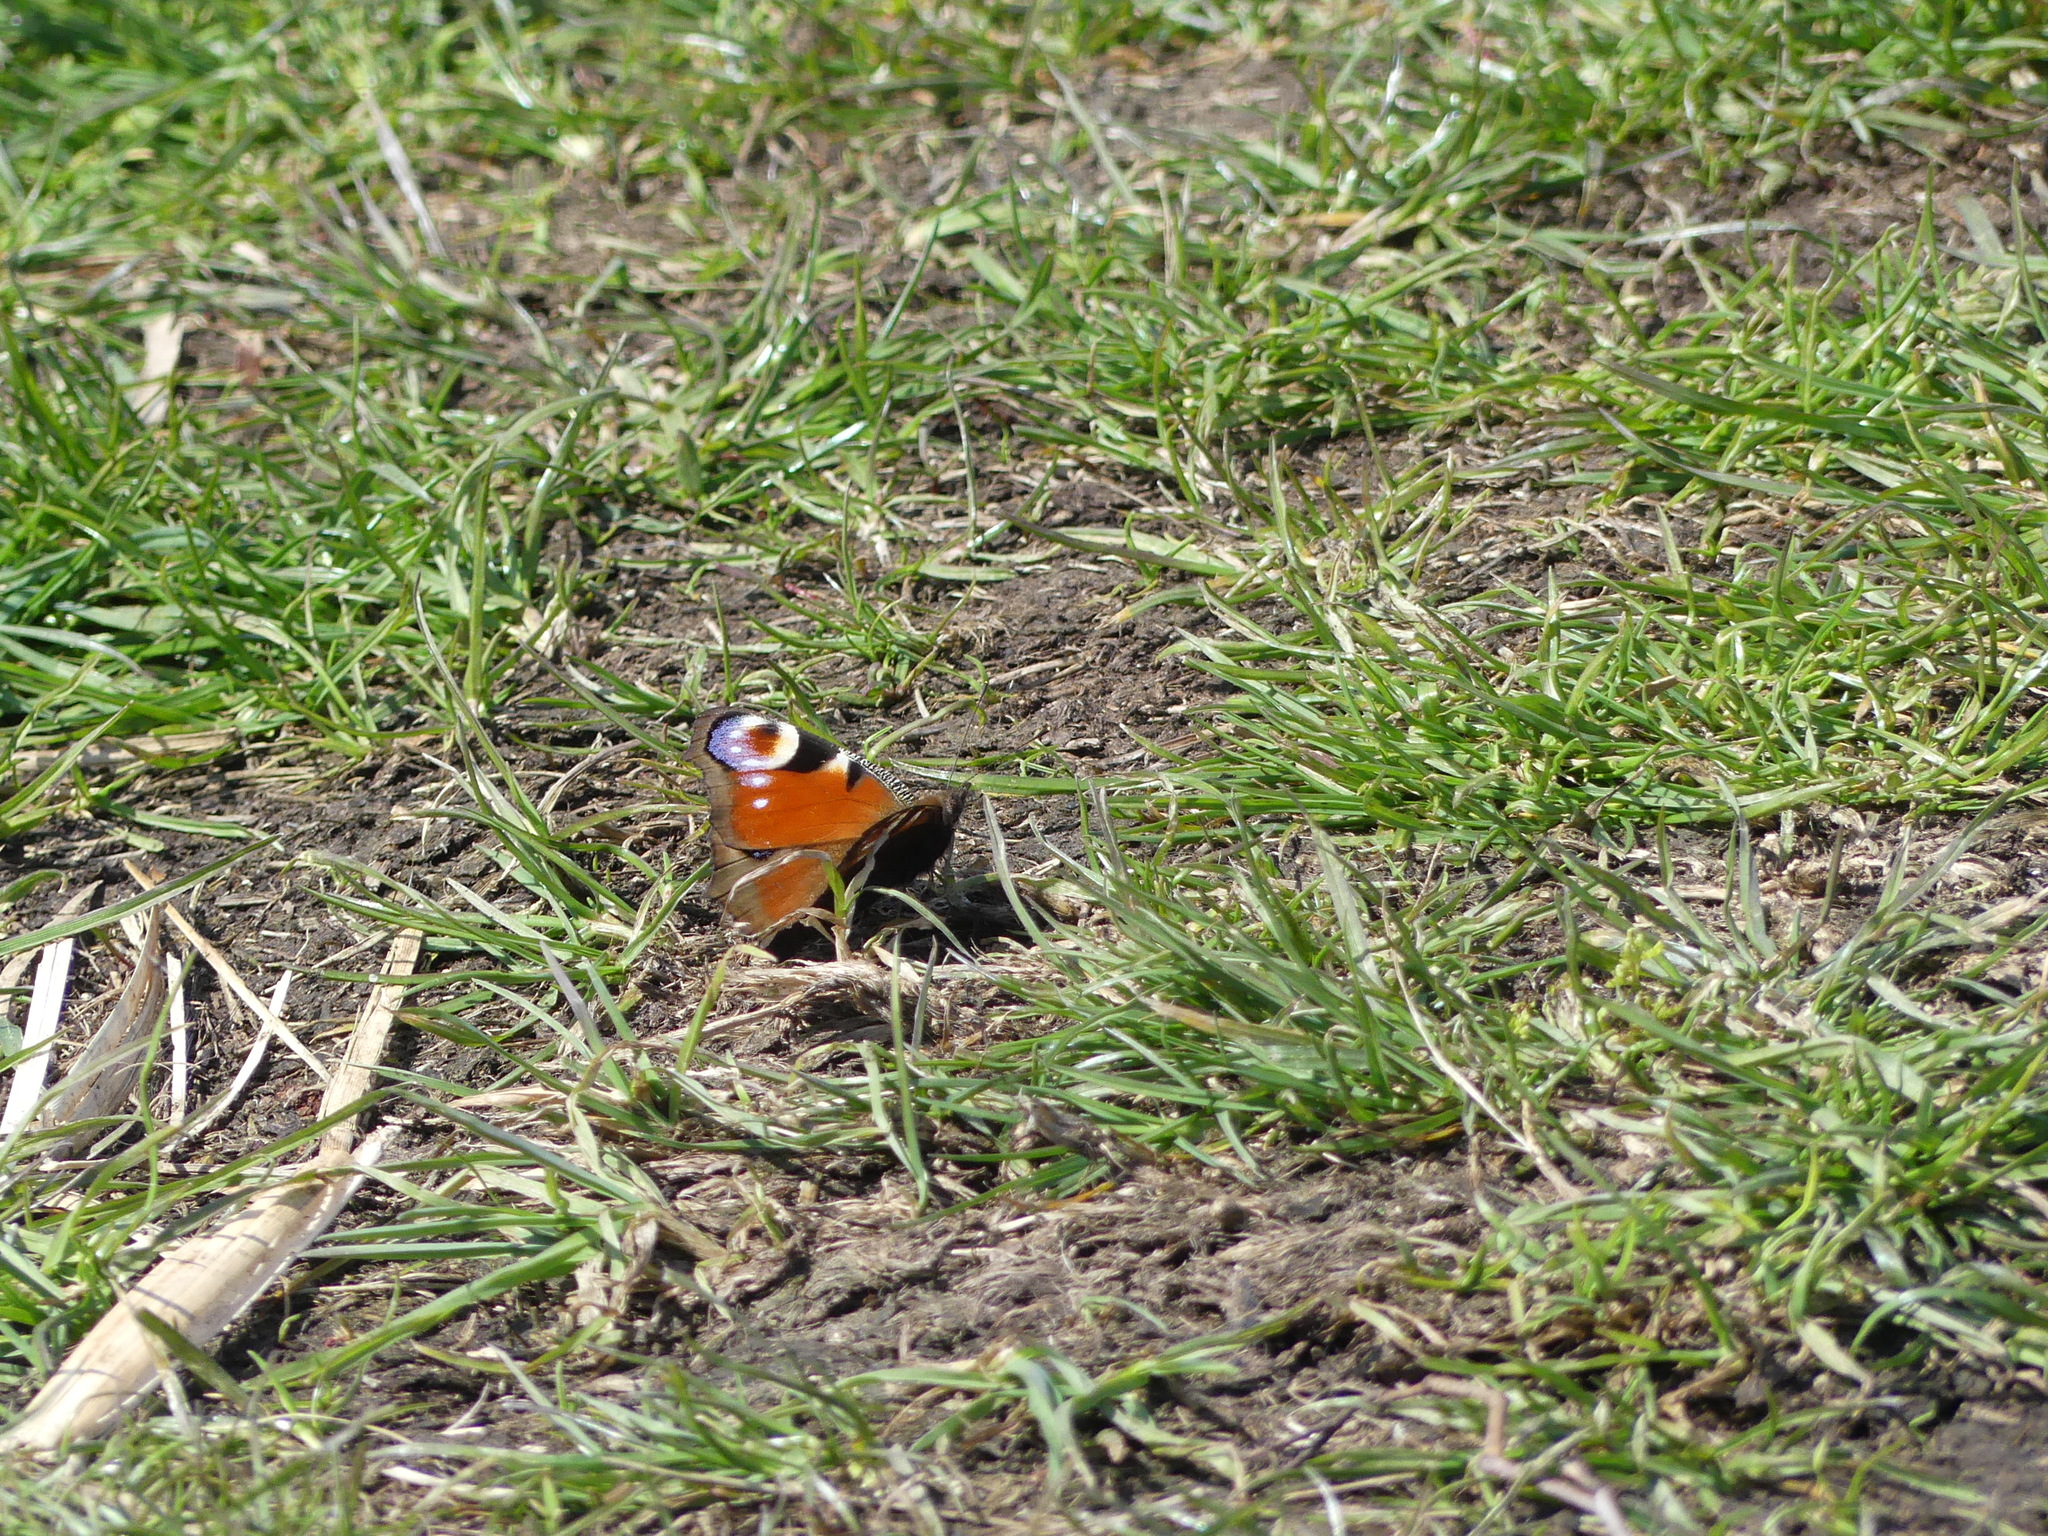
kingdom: Animalia
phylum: Arthropoda
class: Insecta
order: Lepidoptera
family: Nymphalidae
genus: Aglais
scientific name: Aglais io
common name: Peacock
